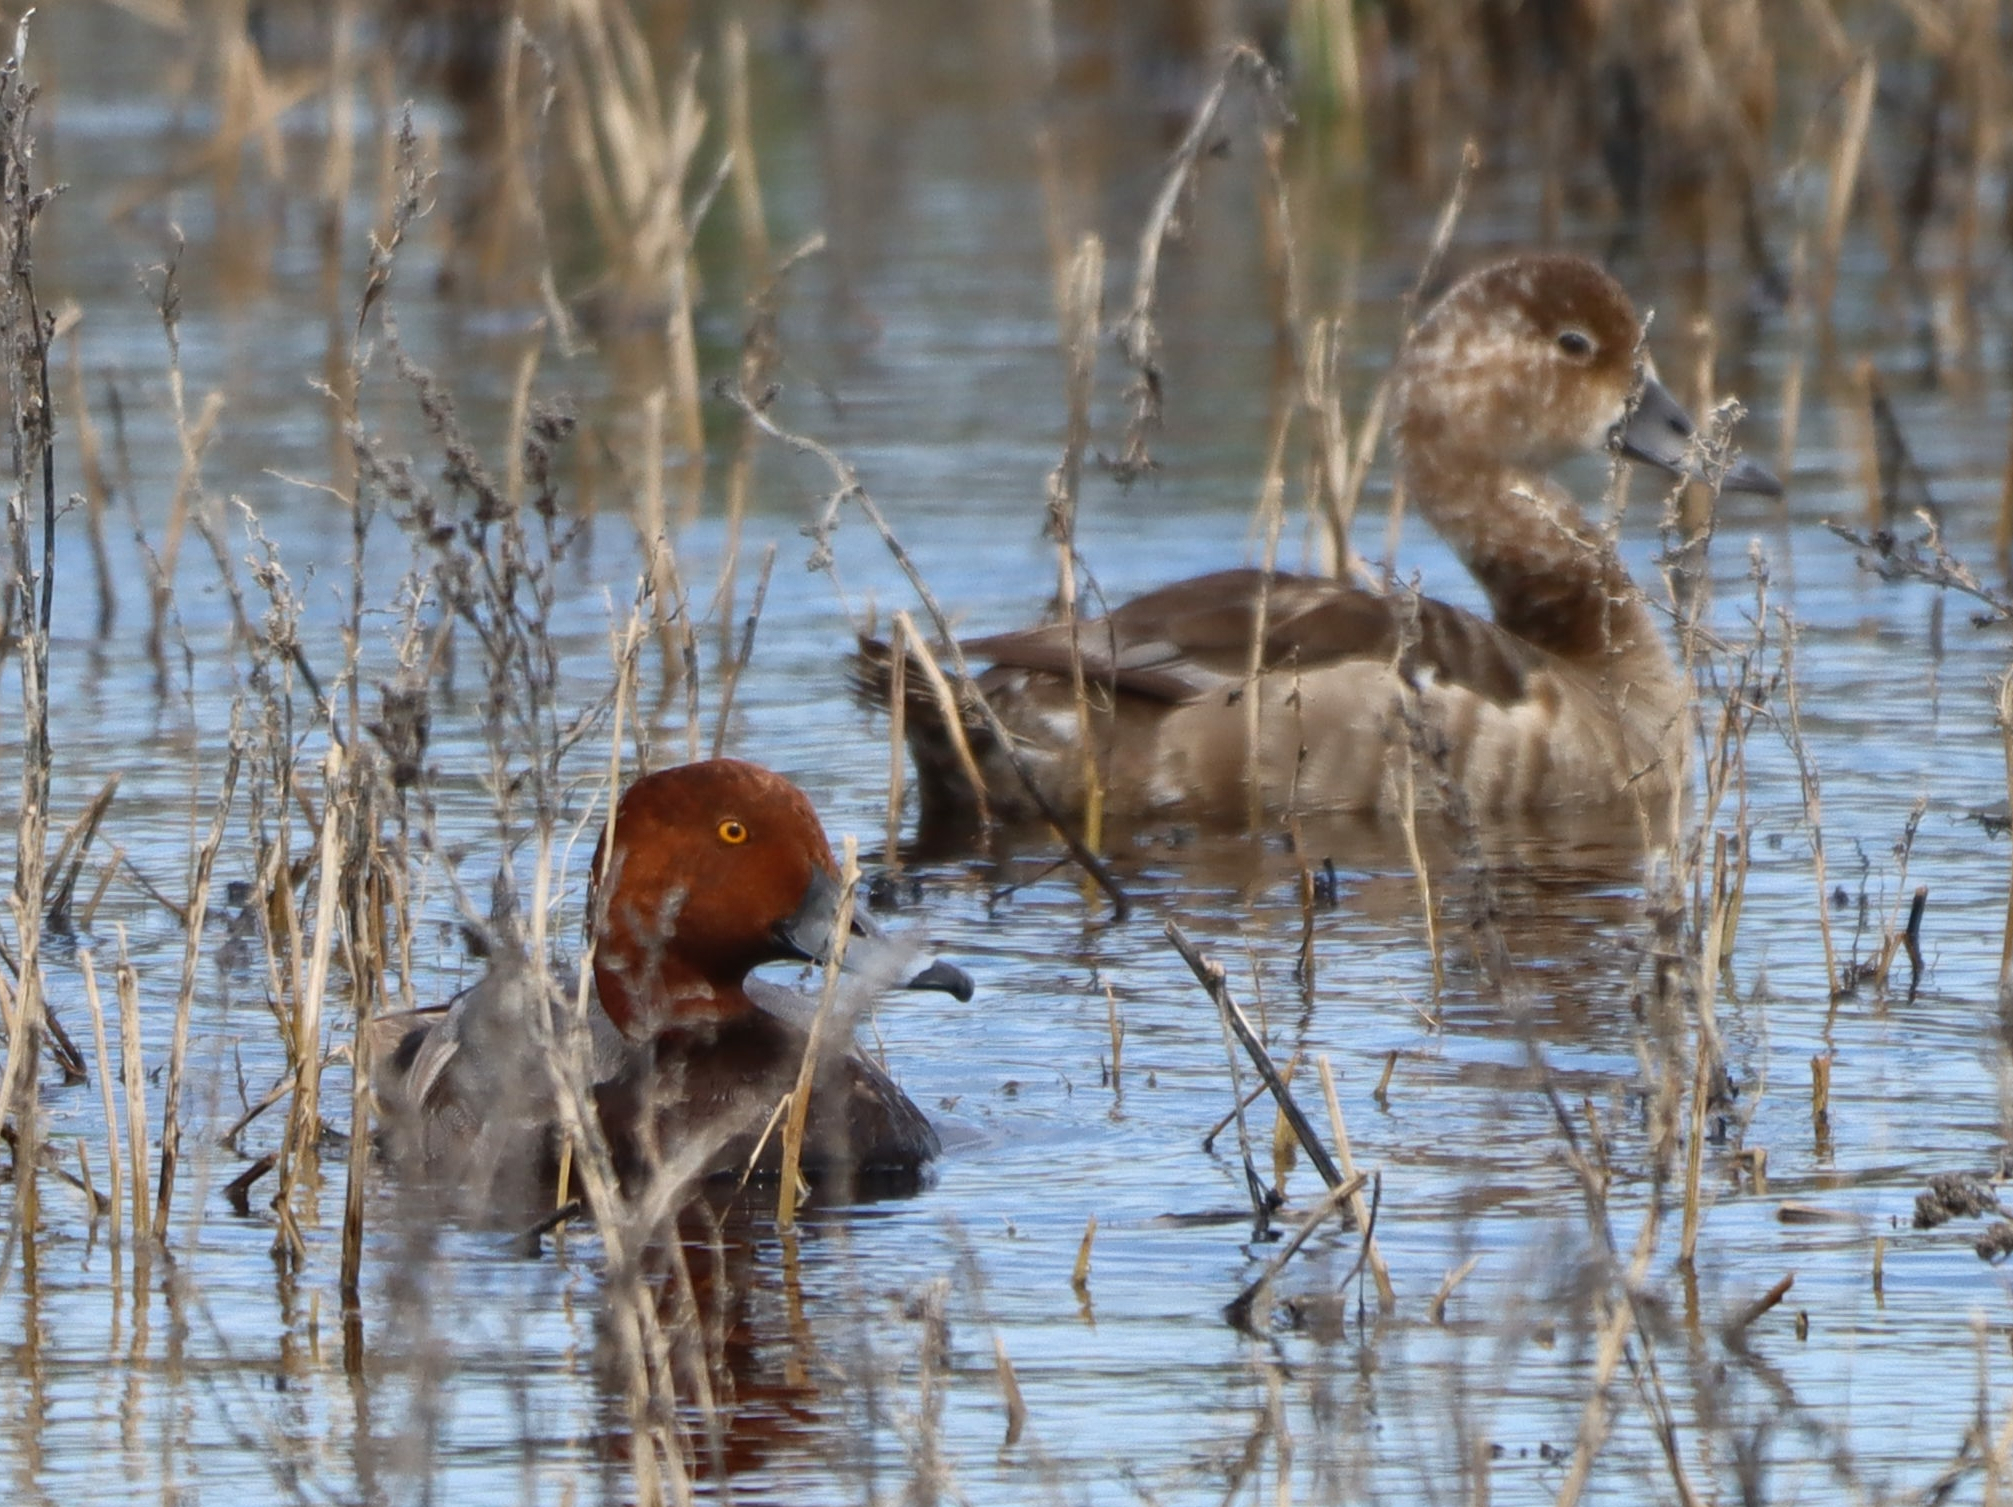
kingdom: Animalia
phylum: Chordata
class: Aves
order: Anseriformes
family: Anatidae
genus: Aythya
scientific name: Aythya americana
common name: Redhead
